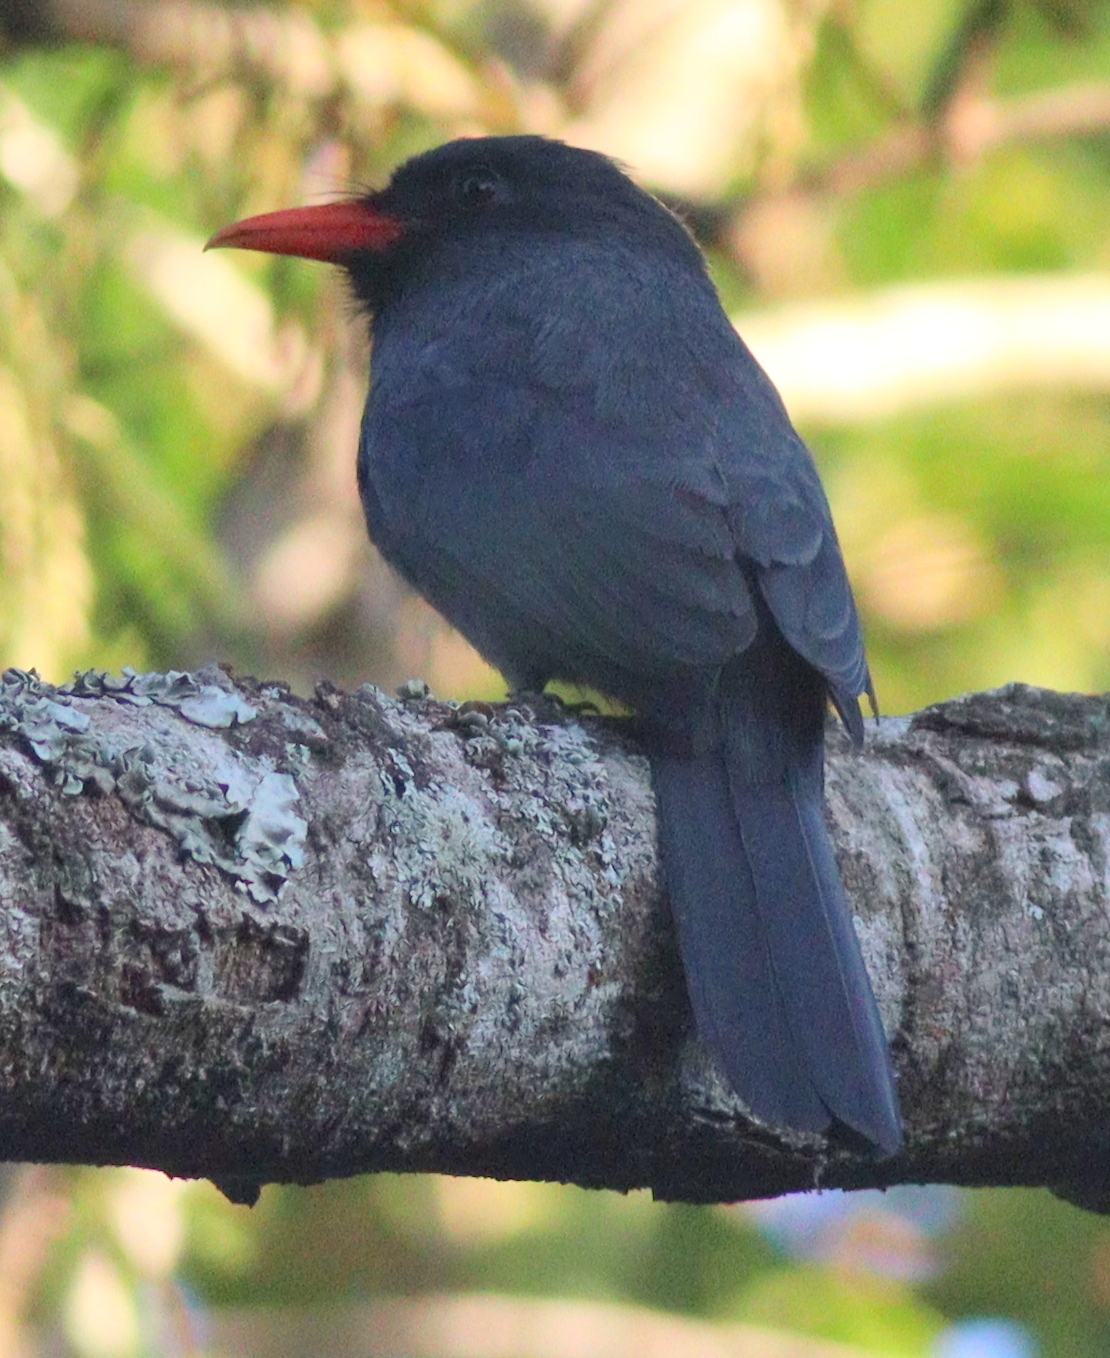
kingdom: Animalia
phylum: Chordata
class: Aves
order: Piciformes
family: Bucconidae
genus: Monasa
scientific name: Monasa nigrifrons
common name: Black-fronted nunbird
